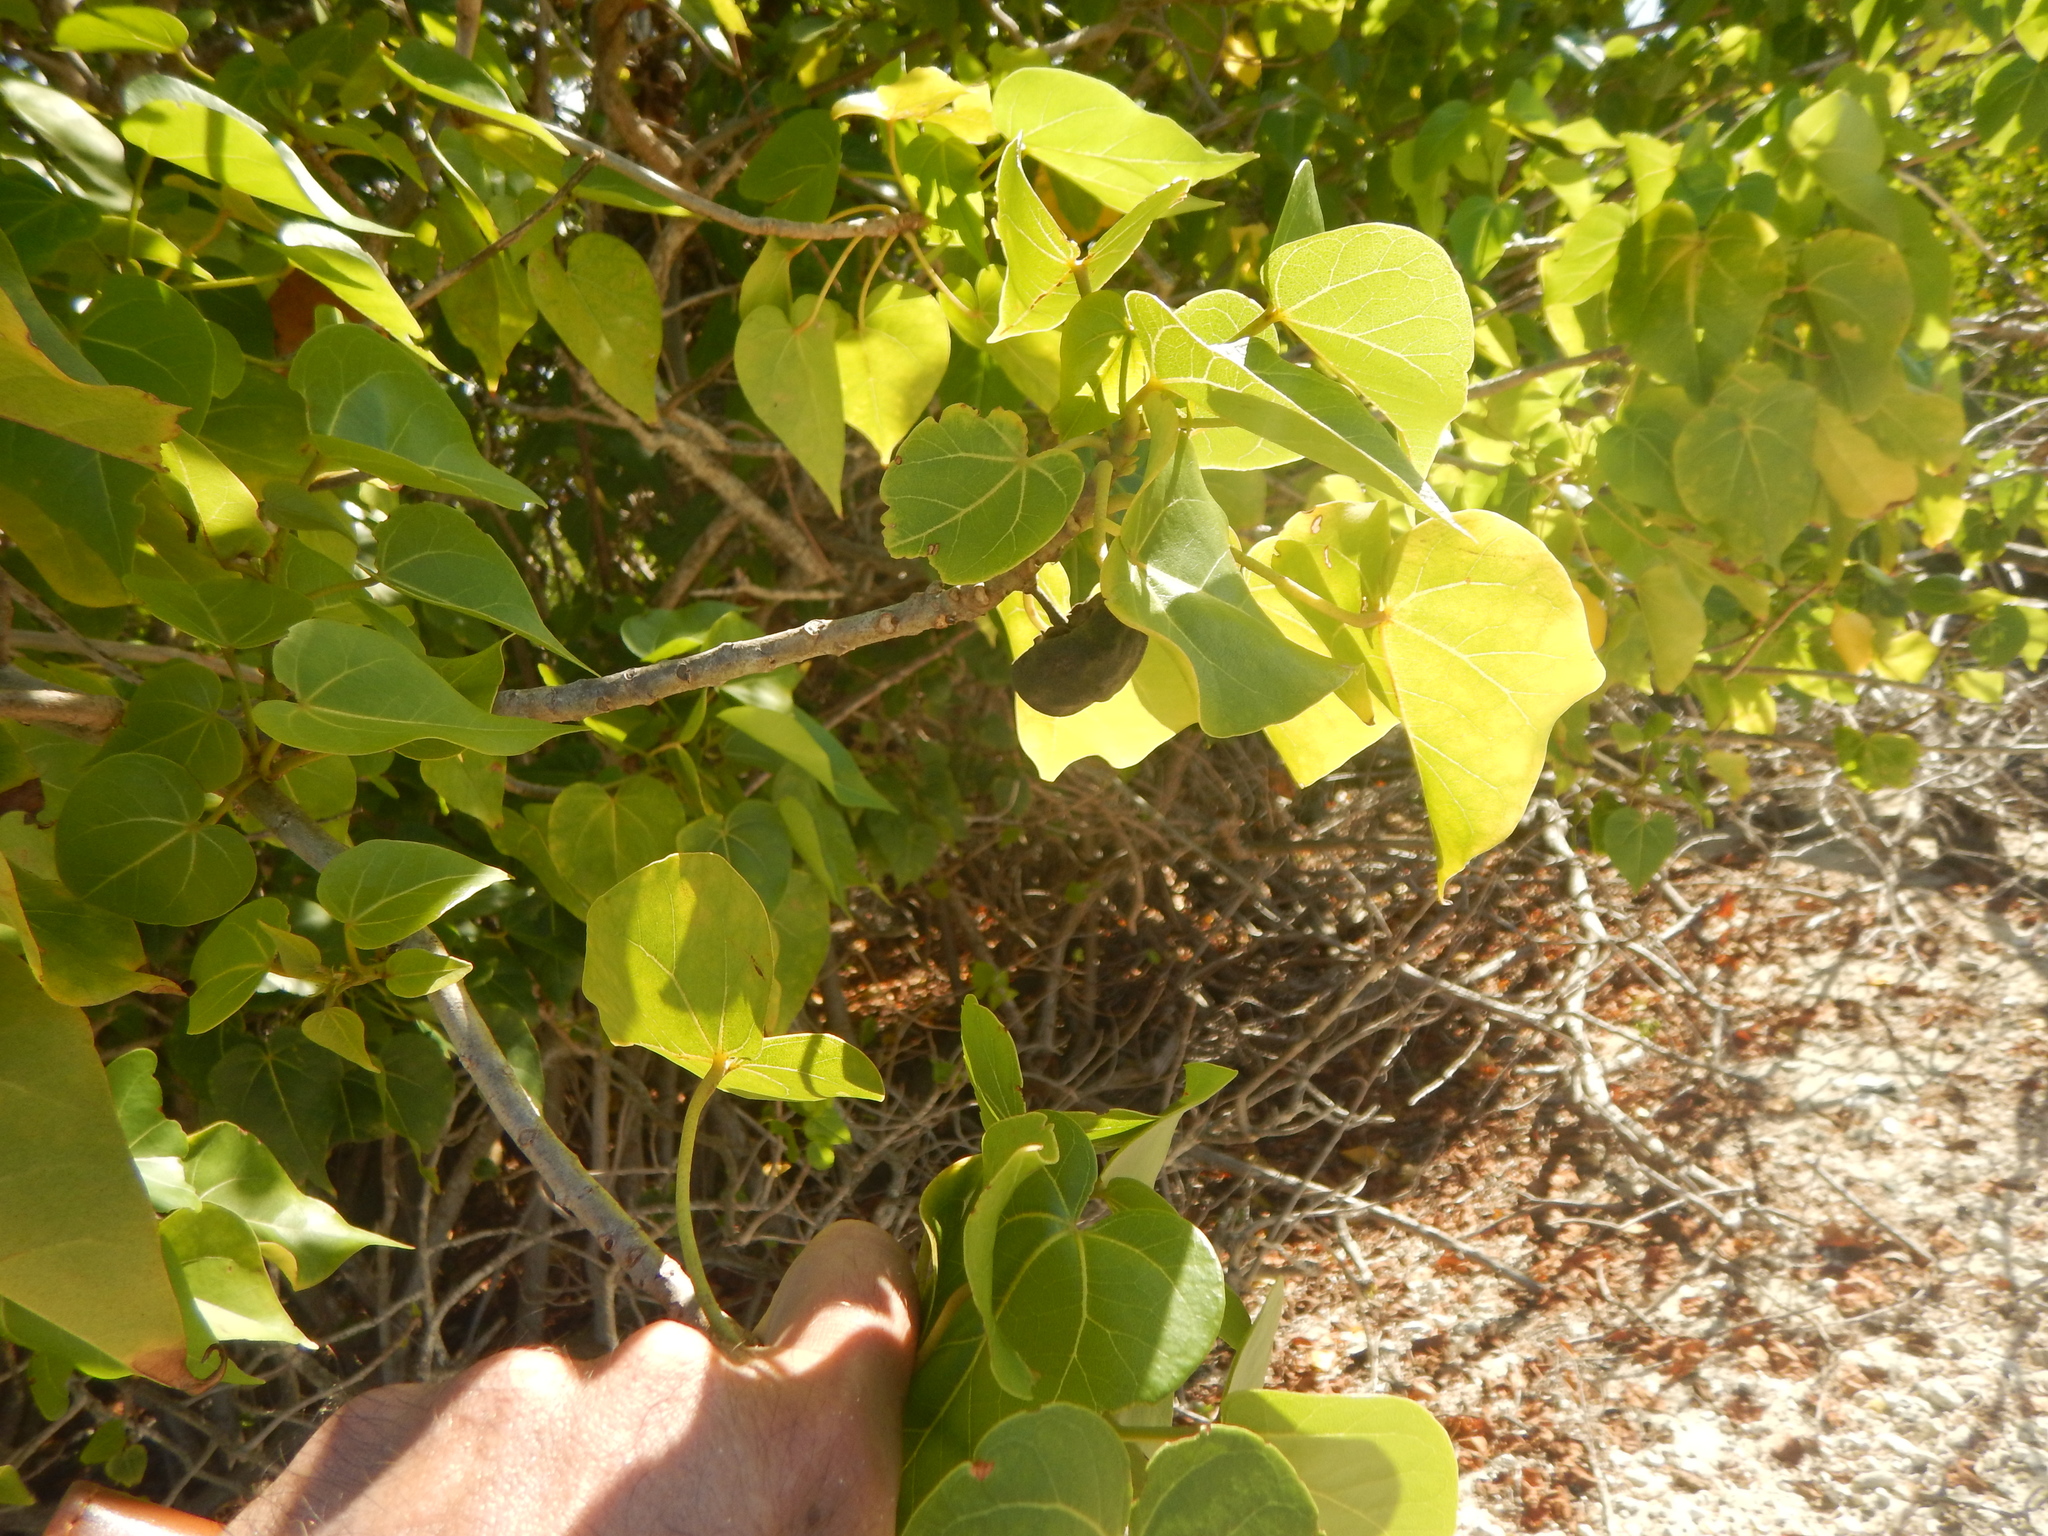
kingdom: Plantae
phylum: Tracheophyta
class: Magnoliopsida
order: Malvales
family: Malvaceae
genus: Thespesia
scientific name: Thespesia populnea
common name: Seaside mahoe
